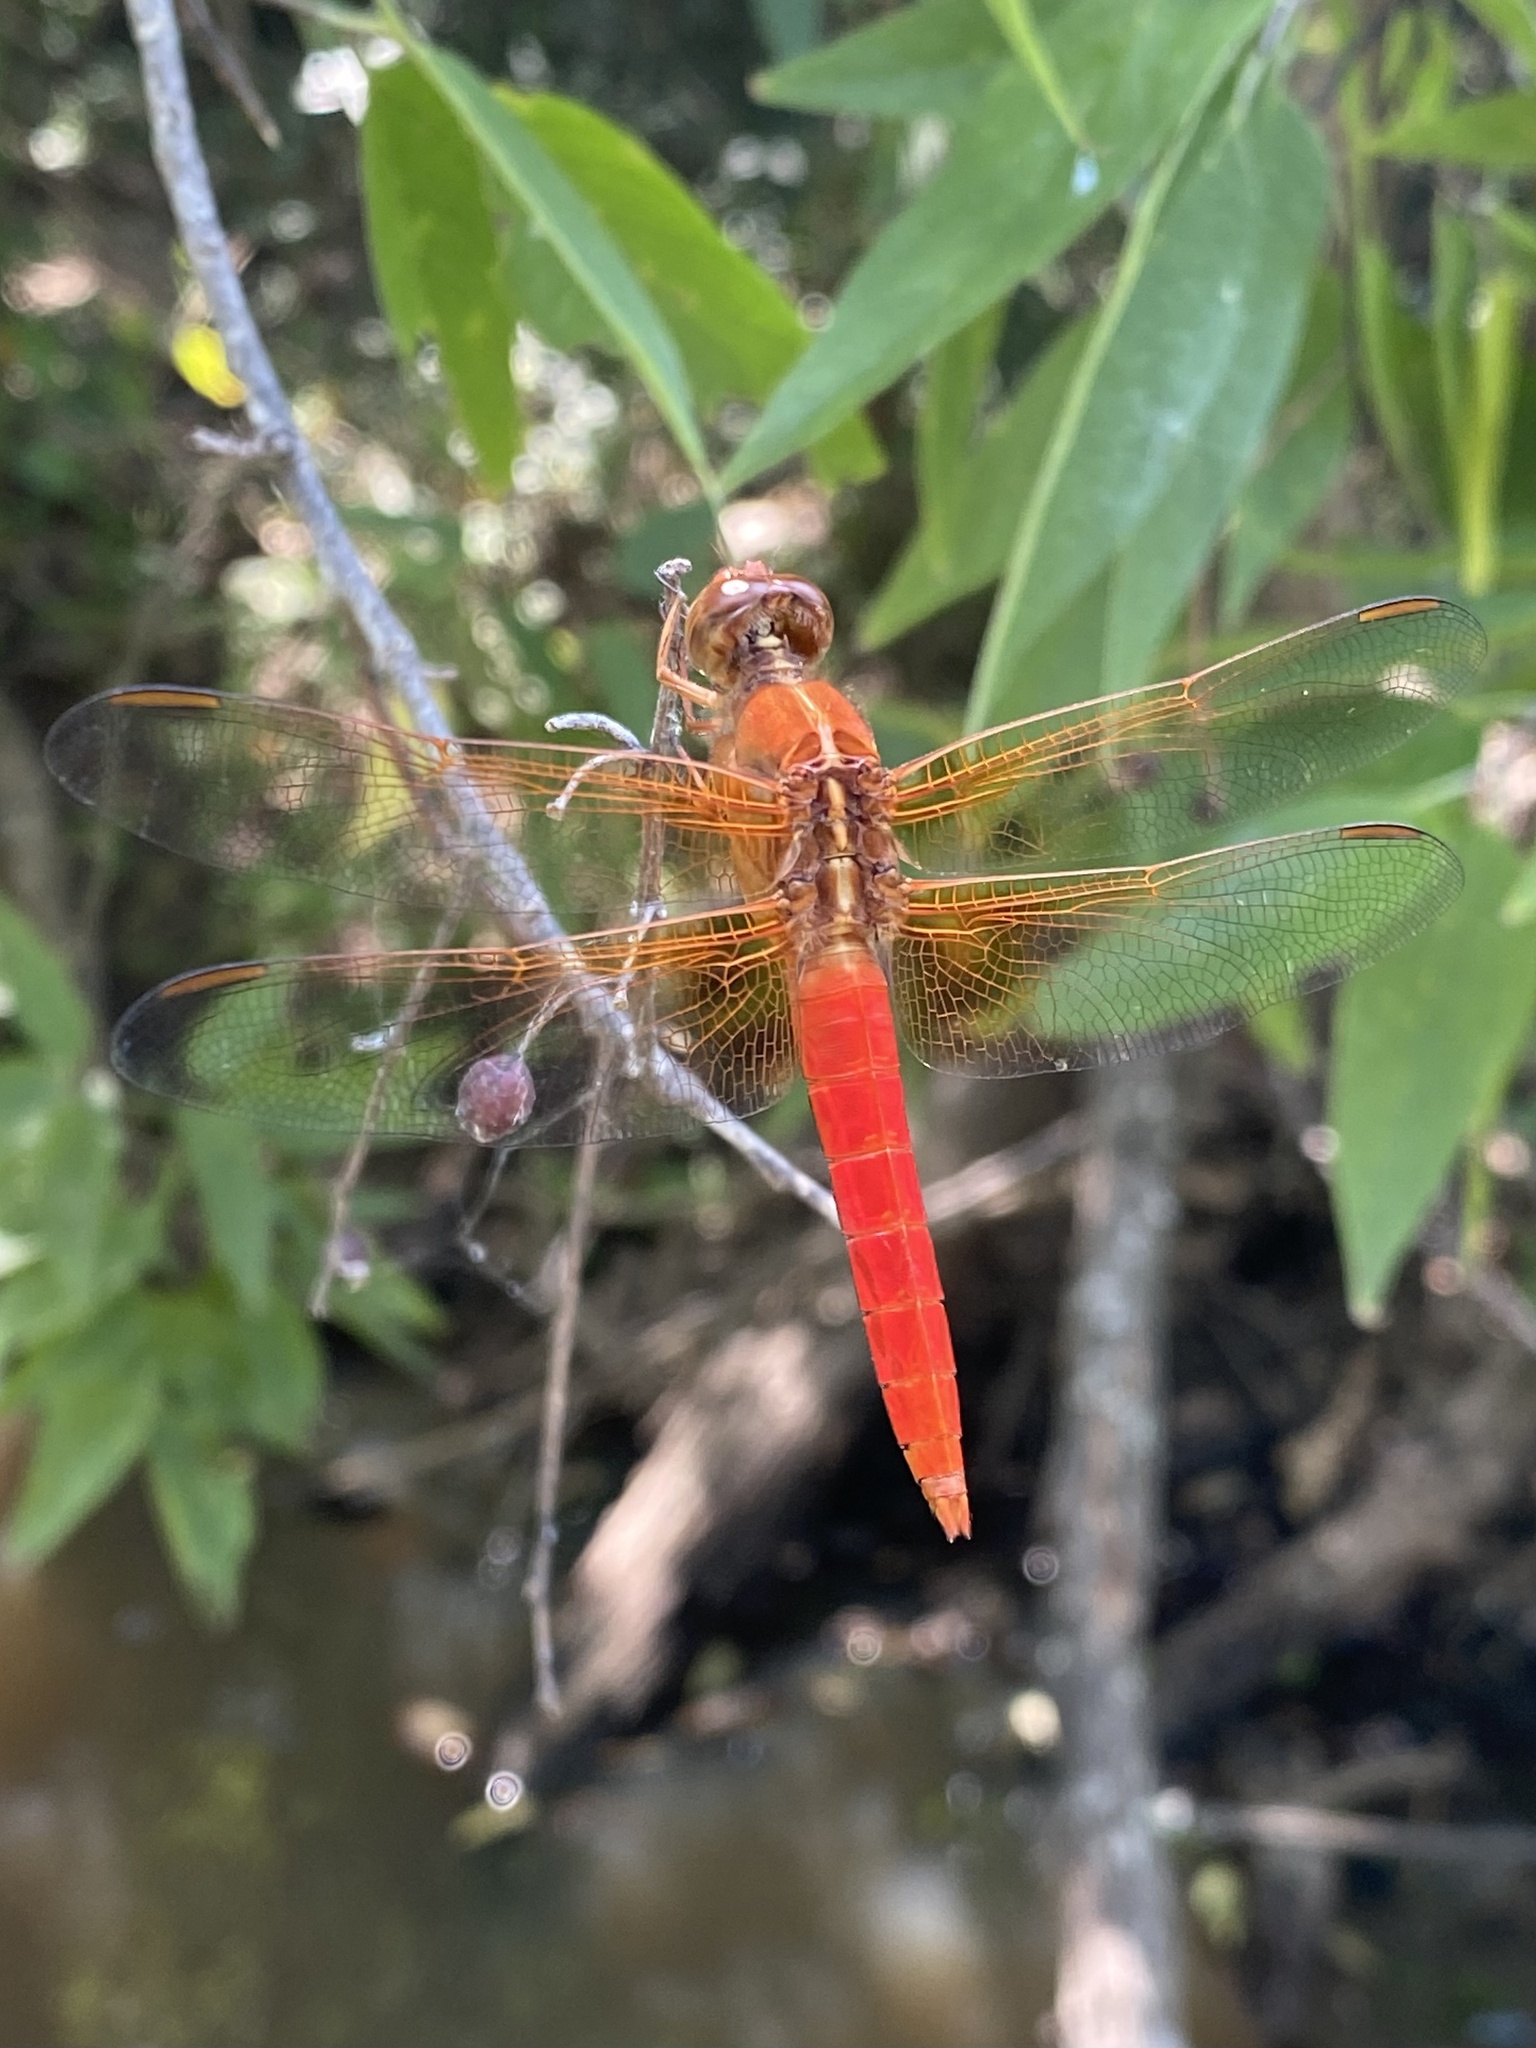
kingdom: Animalia
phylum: Arthropoda
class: Insecta
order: Odonata
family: Libellulidae
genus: Libellula
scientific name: Libellula croceipennis
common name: Neon skimmer
